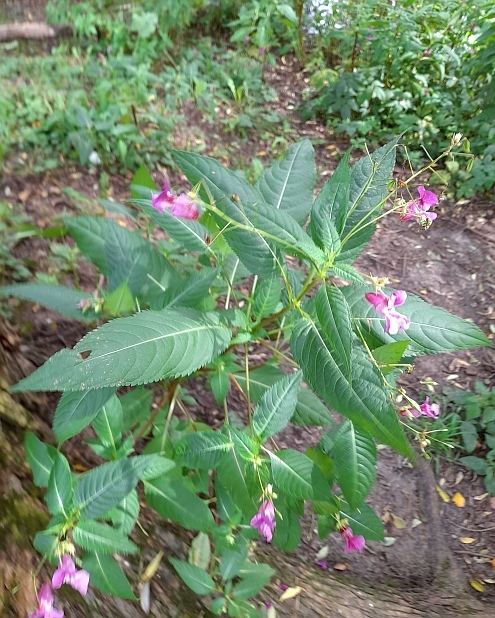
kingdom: Plantae
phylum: Tracheophyta
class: Magnoliopsida
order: Ericales
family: Balsaminaceae
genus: Impatiens
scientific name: Impatiens glandulifera
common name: Himalayan balsam
